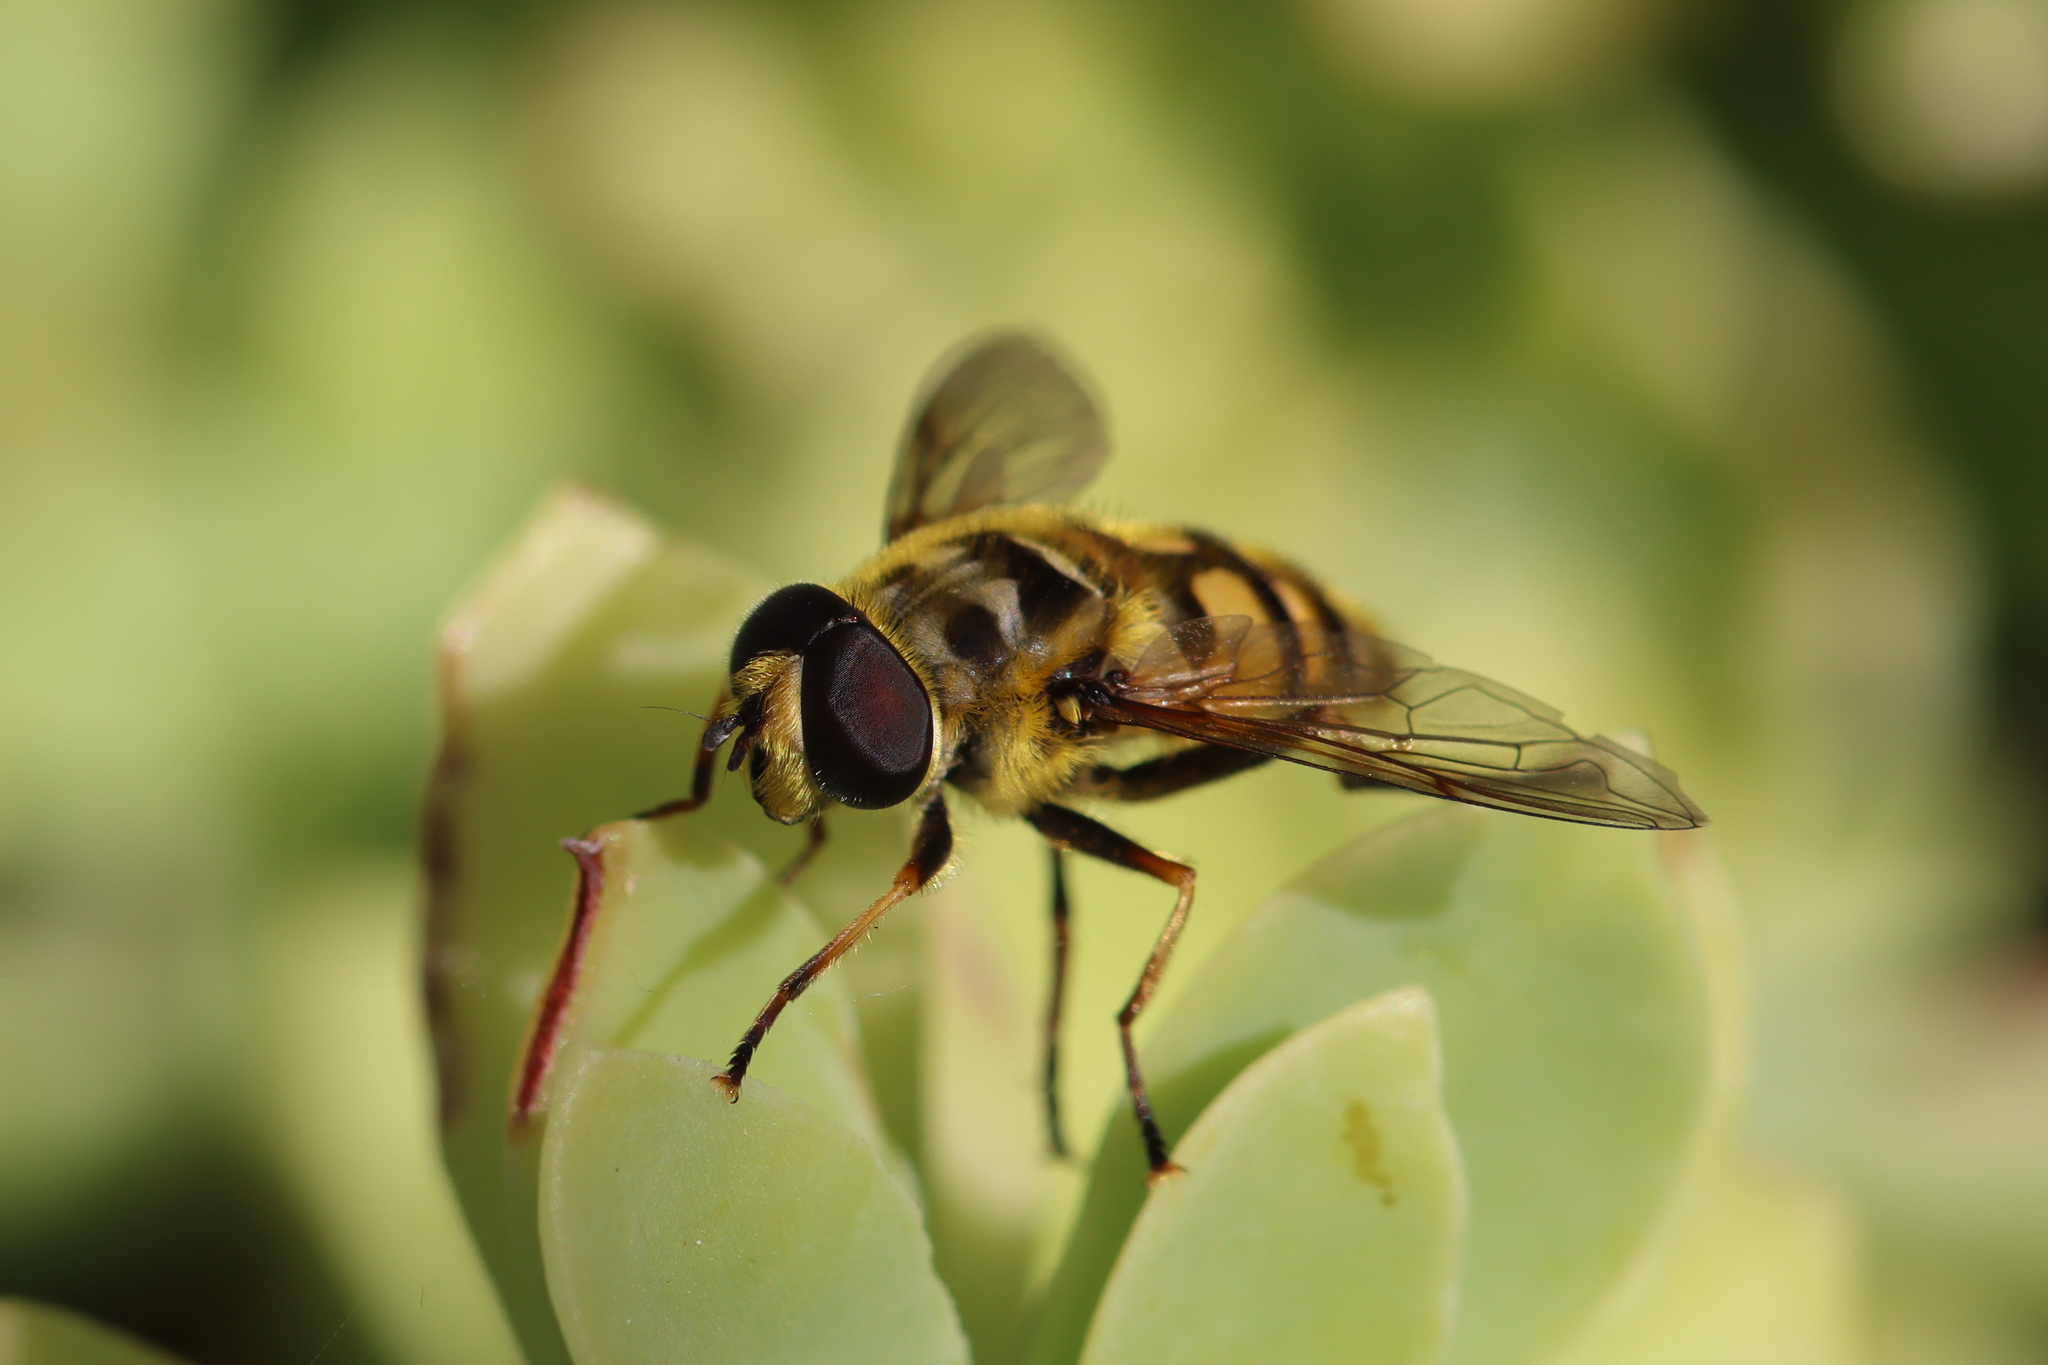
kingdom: Animalia
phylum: Arthropoda
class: Insecta
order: Diptera
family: Syrphidae
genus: Myathropa
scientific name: Myathropa florea
